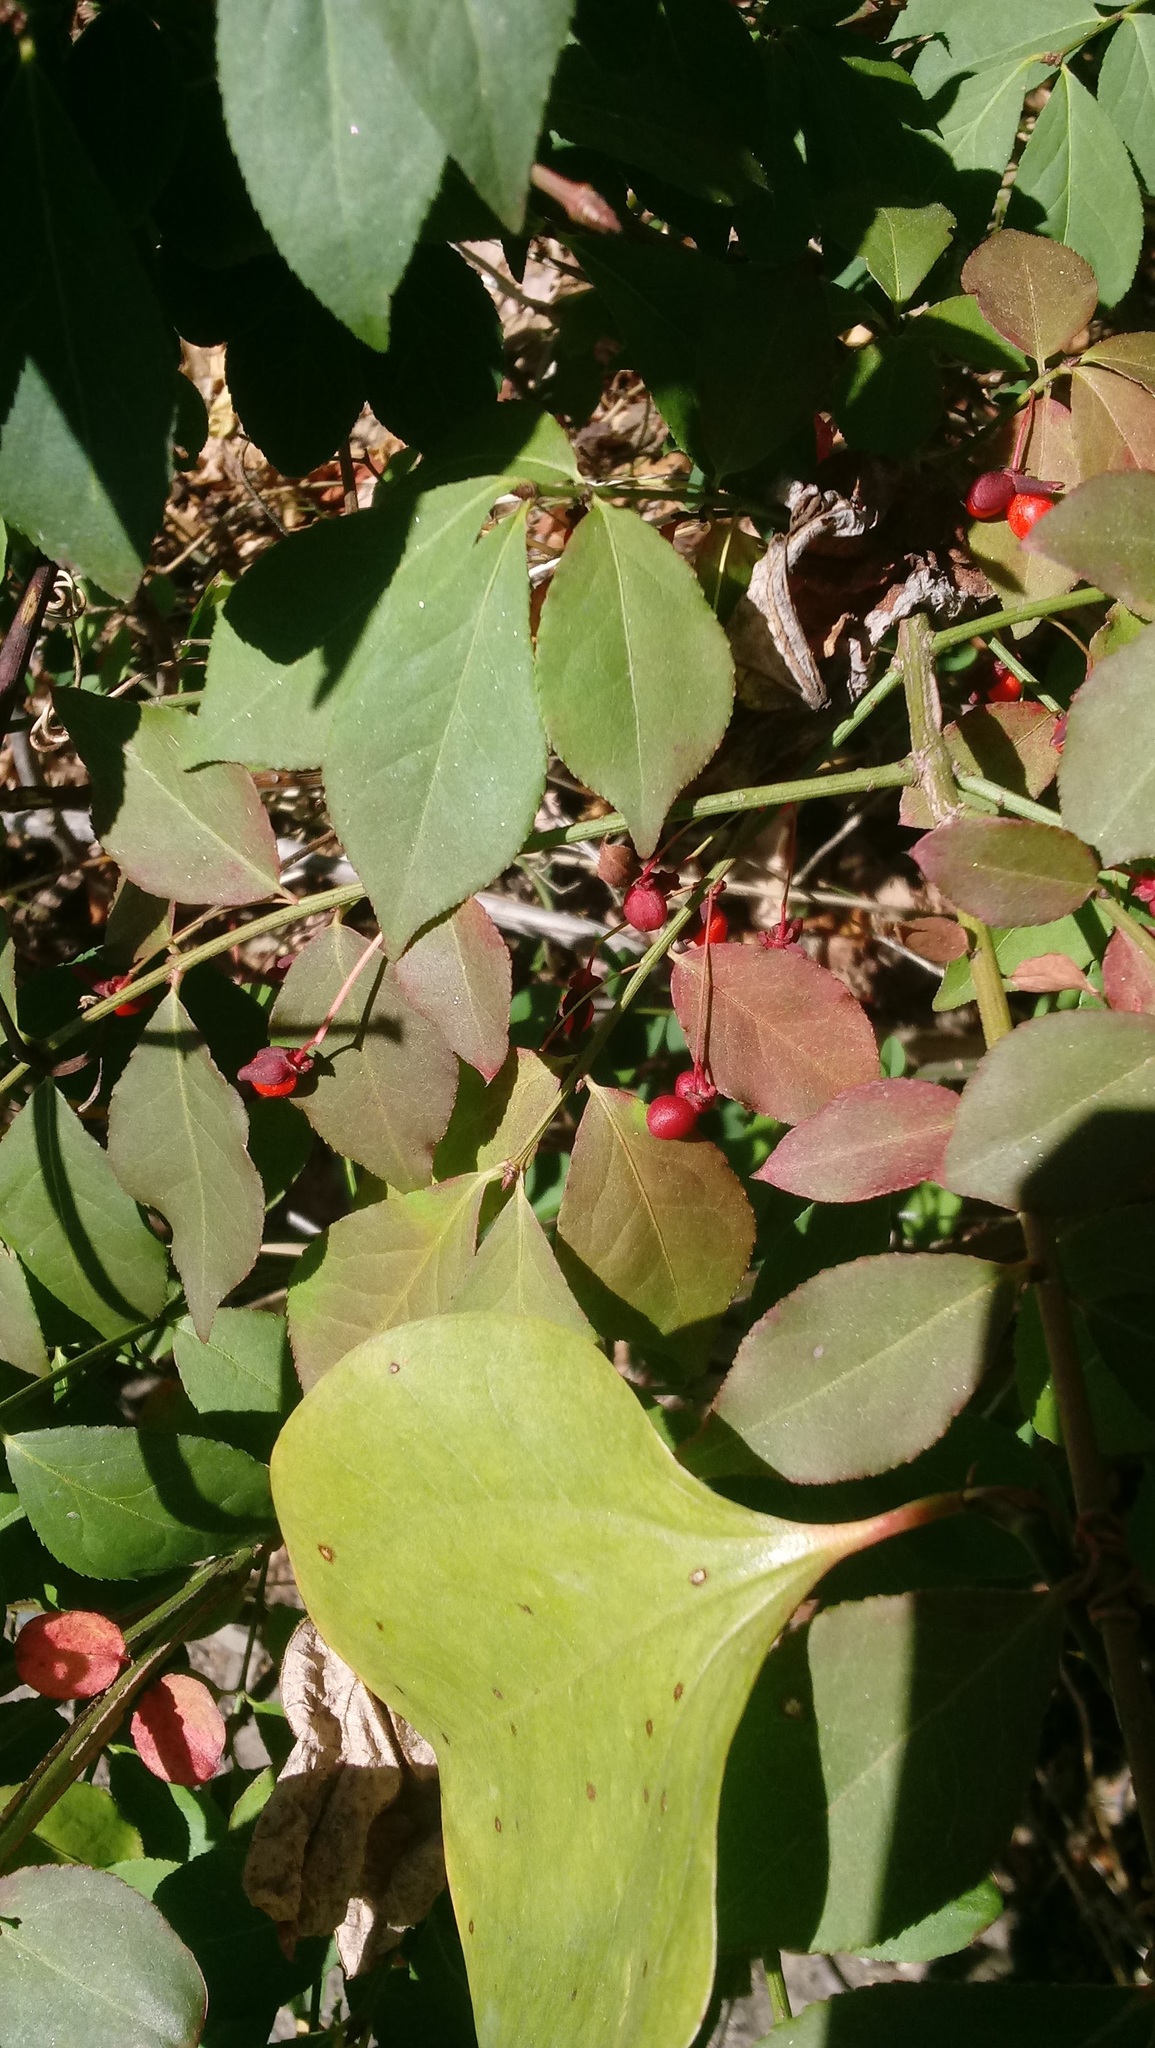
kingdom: Plantae
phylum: Tracheophyta
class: Magnoliopsida
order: Celastrales
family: Celastraceae
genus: Euonymus
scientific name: Euonymus alatus
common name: Winged euonymus
